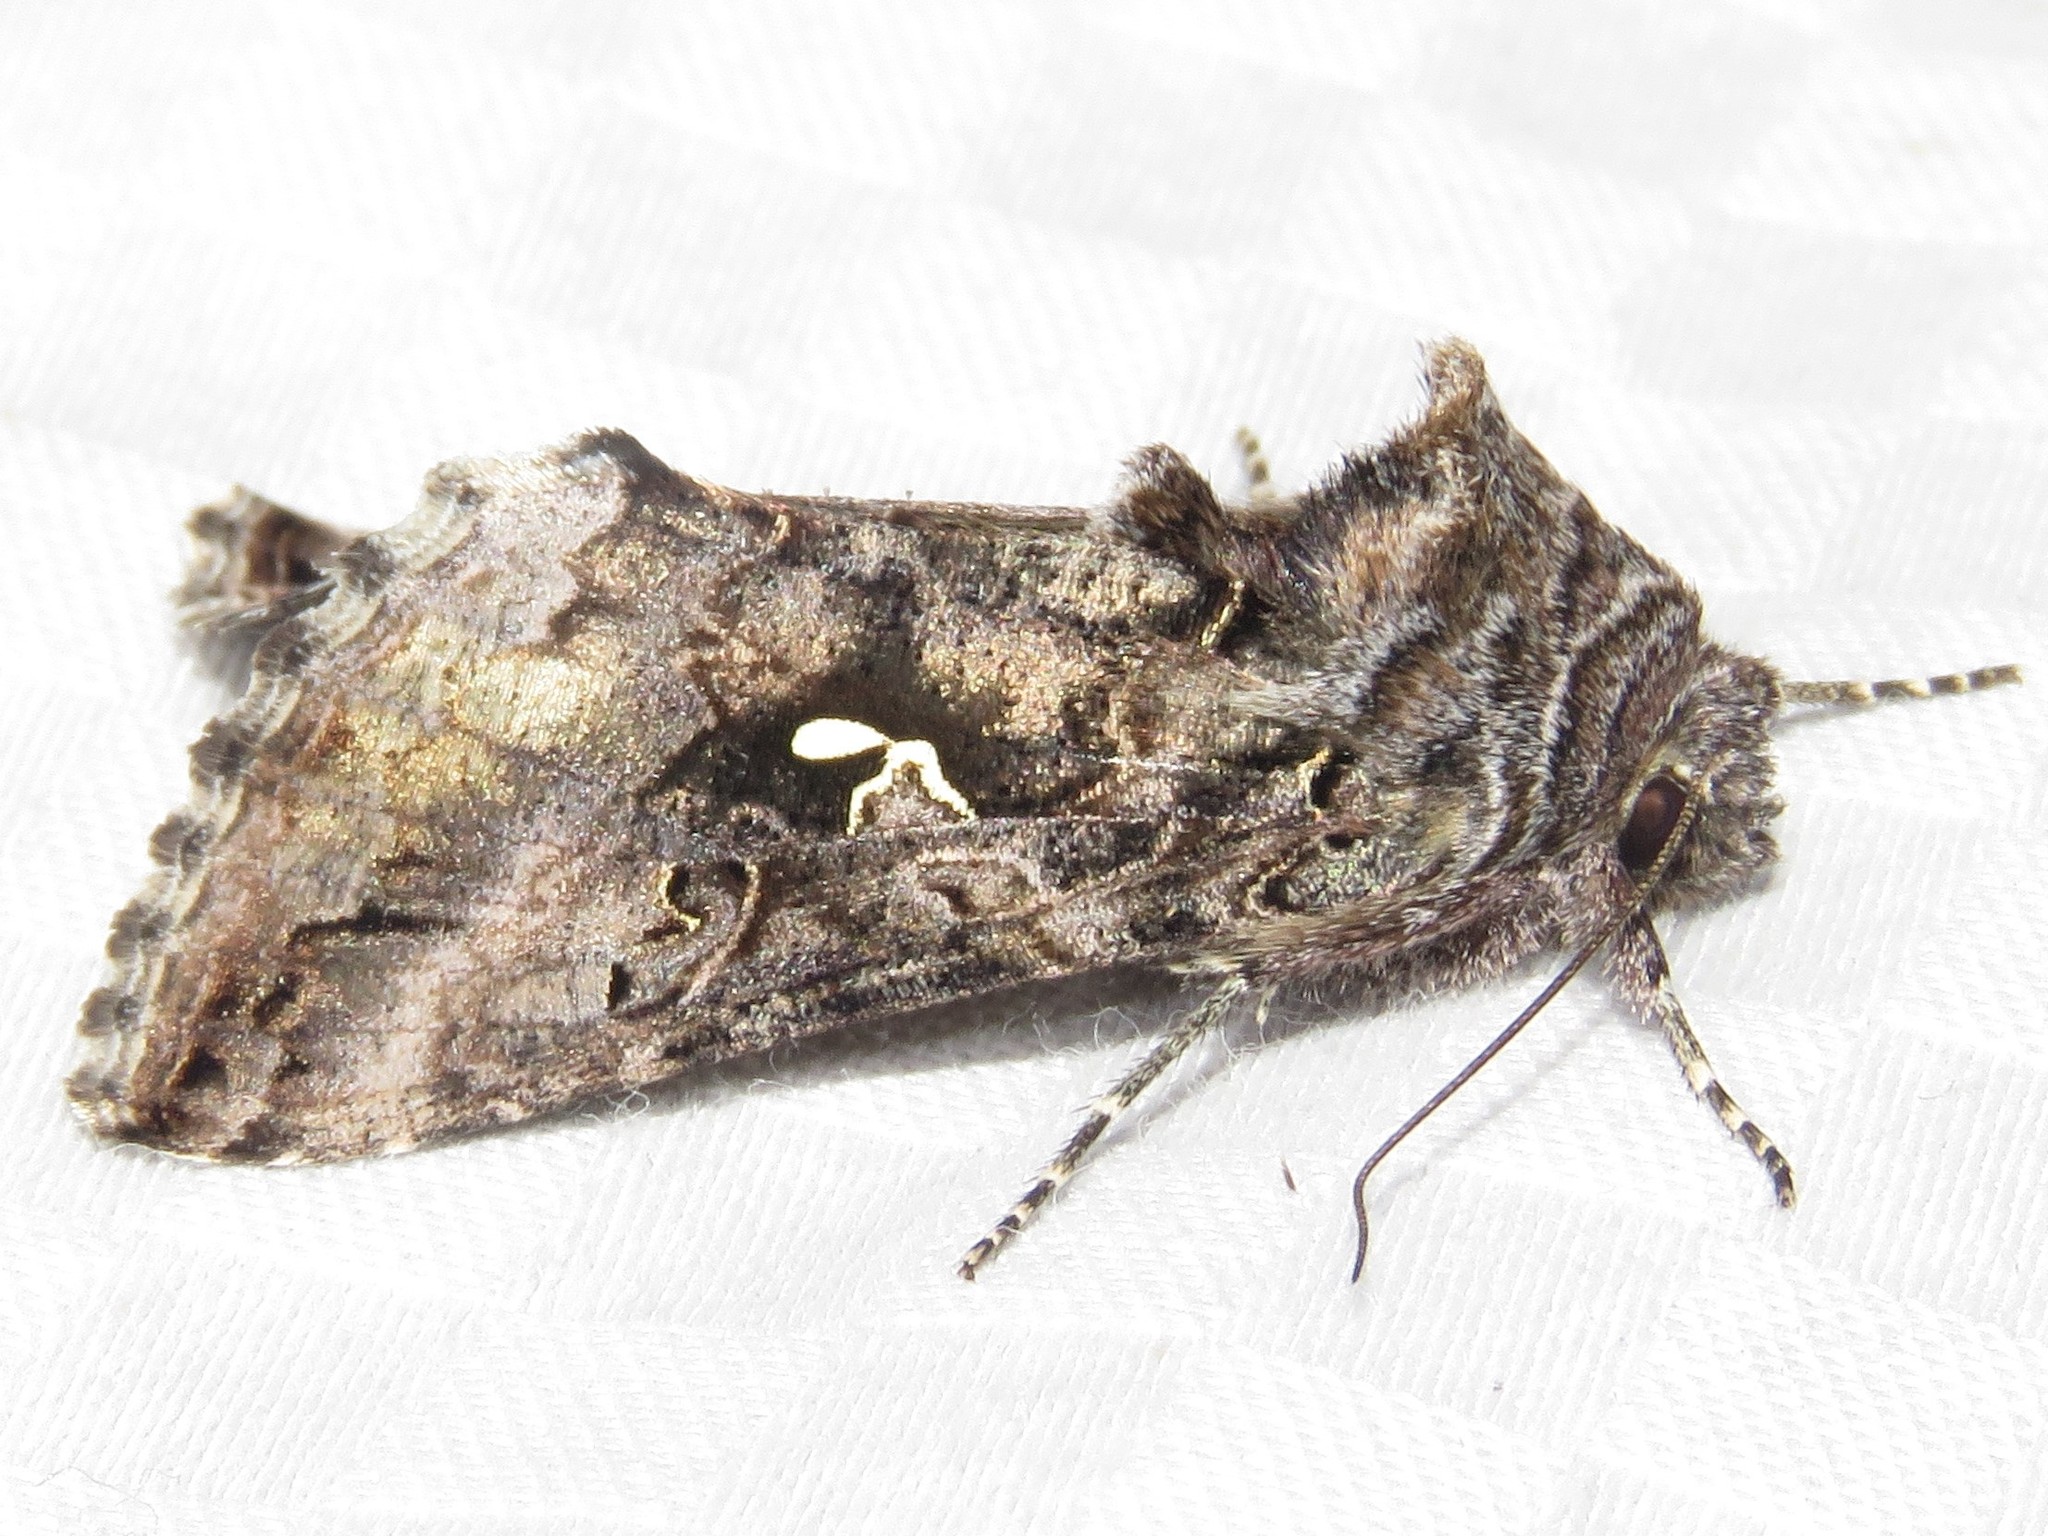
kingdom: Animalia
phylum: Arthropoda
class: Insecta
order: Lepidoptera
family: Noctuidae
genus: Autographa
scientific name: Autographa californica
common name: Alfalfa looper
